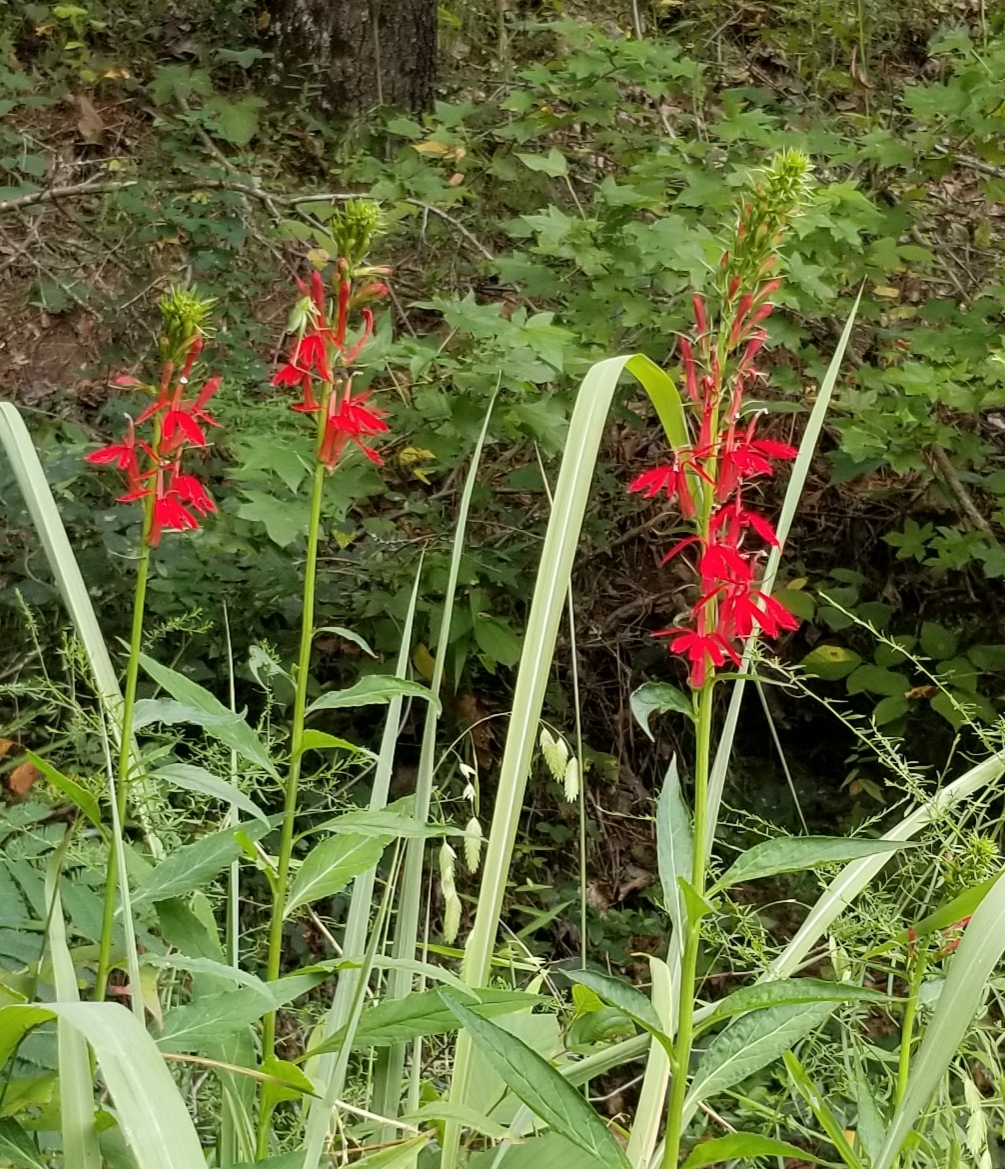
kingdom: Plantae
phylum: Tracheophyta
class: Magnoliopsida
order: Asterales
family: Campanulaceae
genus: Lobelia
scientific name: Lobelia cardinalis
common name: Cardinal flower
